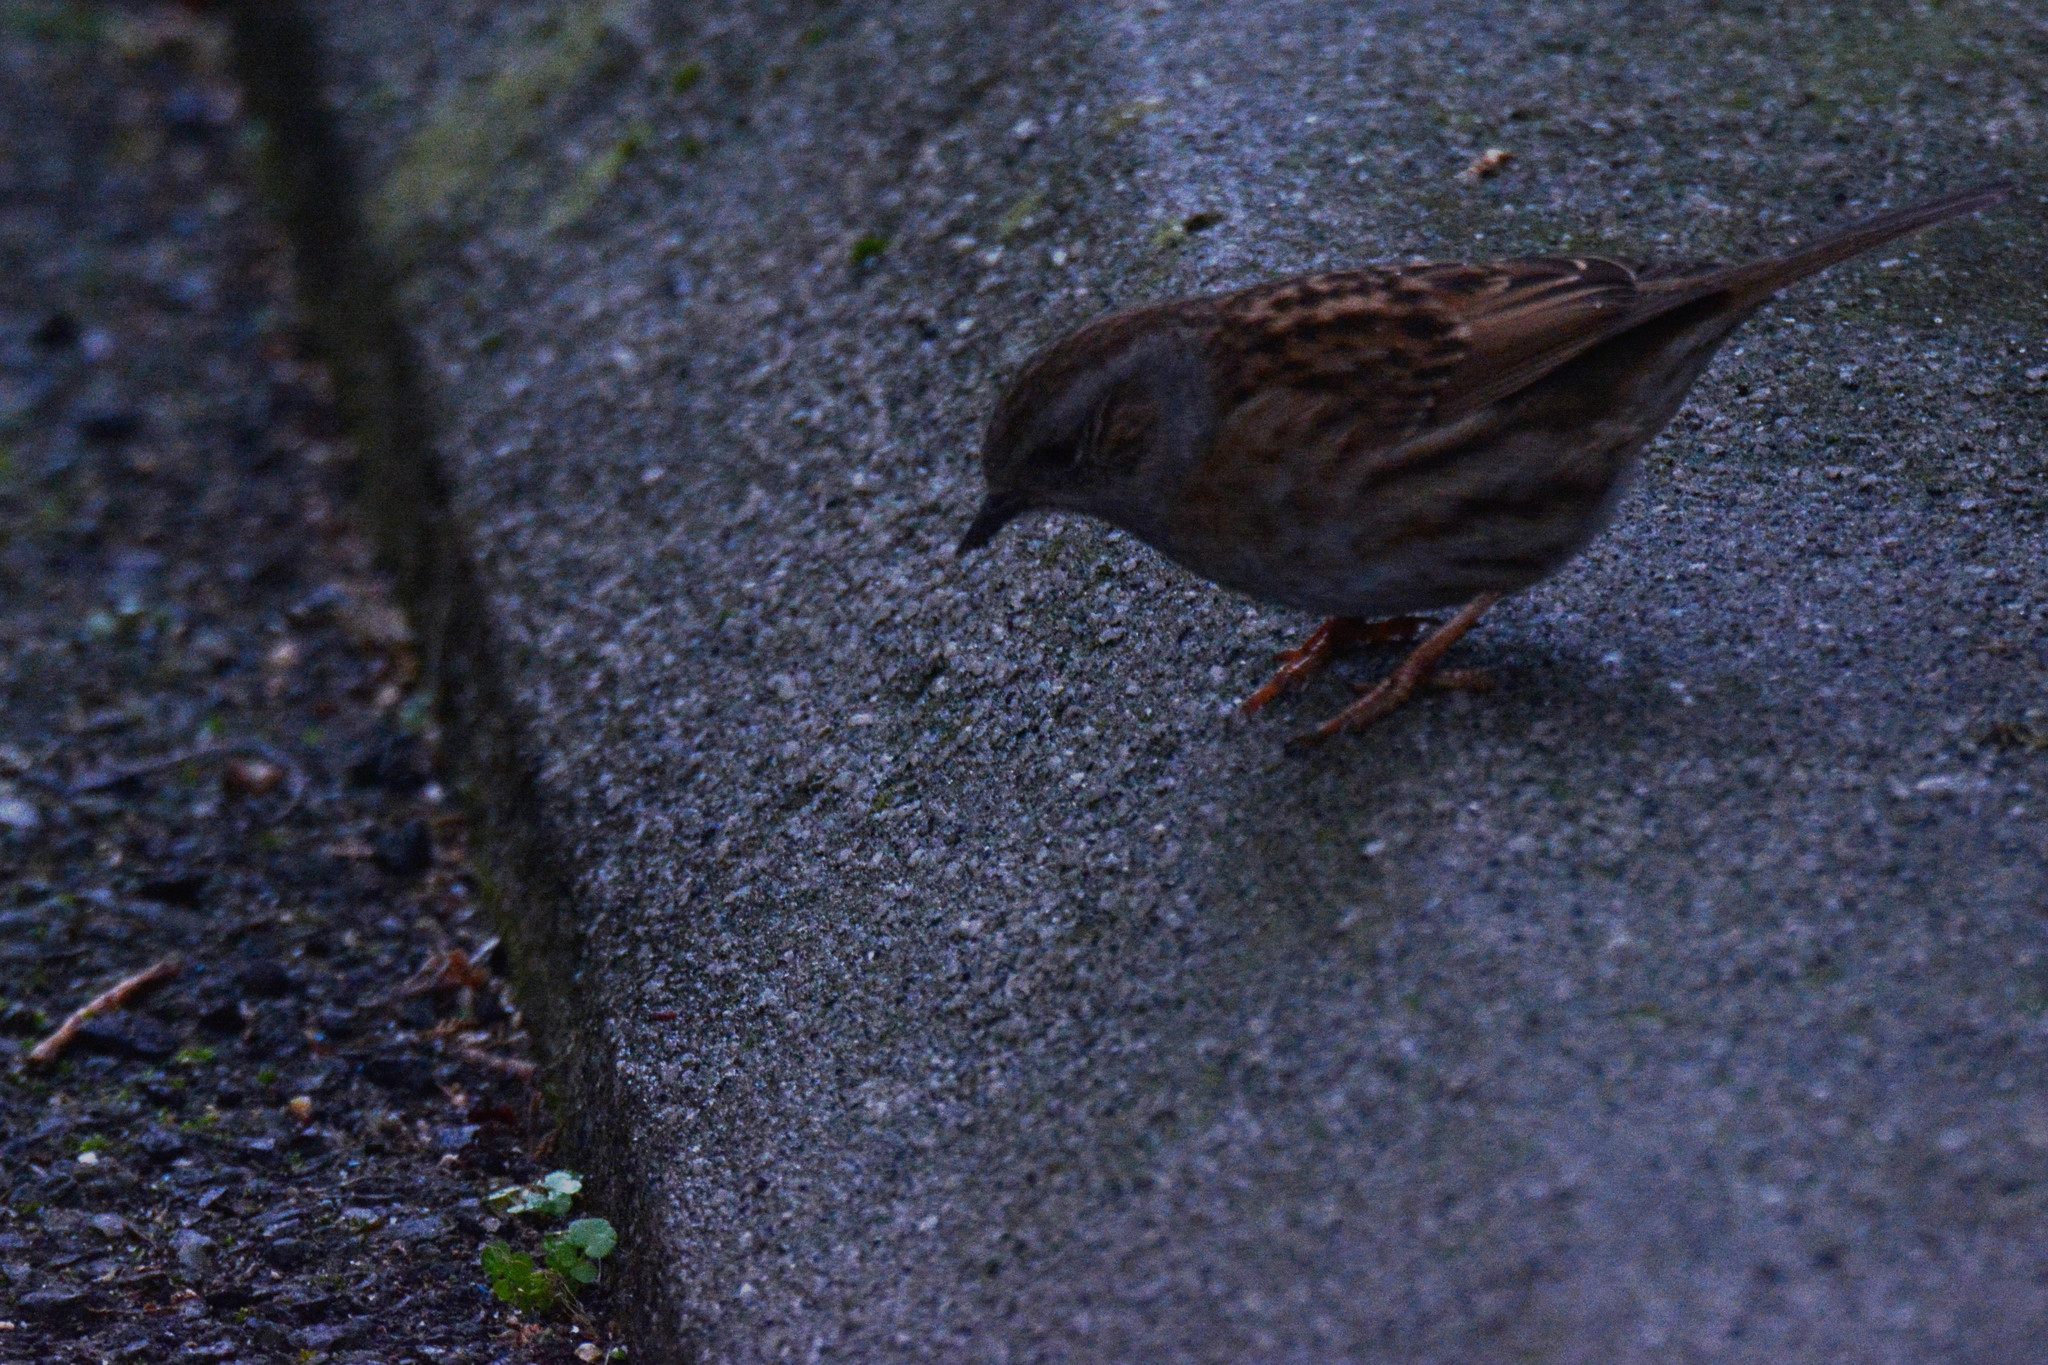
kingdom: Animalia
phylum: Chordata
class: Aves
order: Passeriformes
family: Prunellidae
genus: Prunella
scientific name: Prunella modularis
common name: Dunnock
